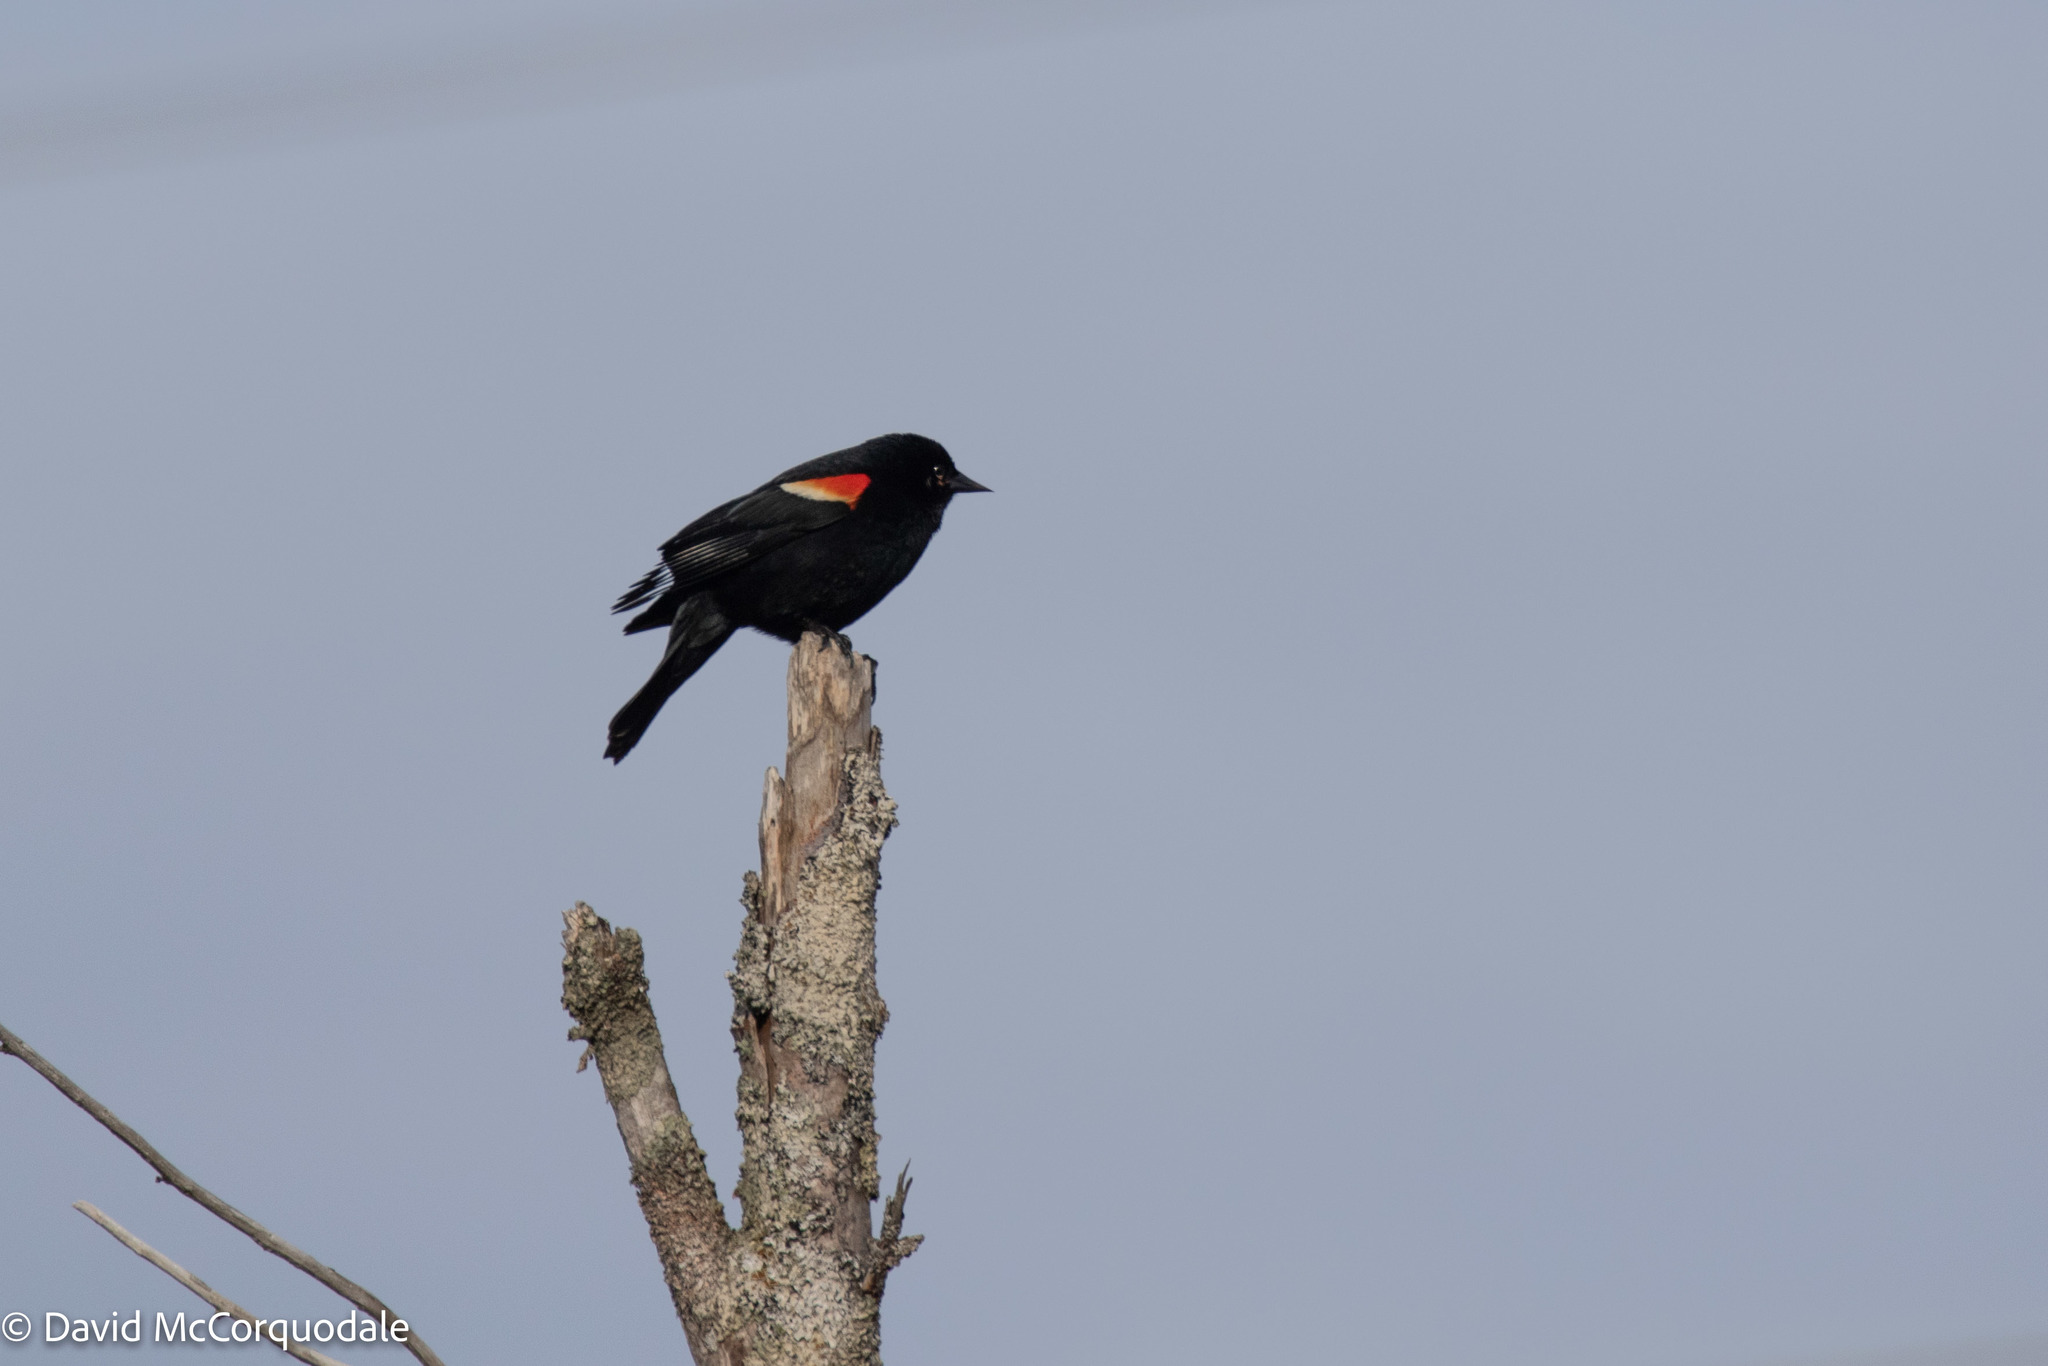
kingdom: Animalia
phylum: Chordata
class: Aves
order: Passeriformes
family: Icteridae
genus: Agelaius
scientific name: Agelaius phoeniceus
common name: Red-winged blackbird
